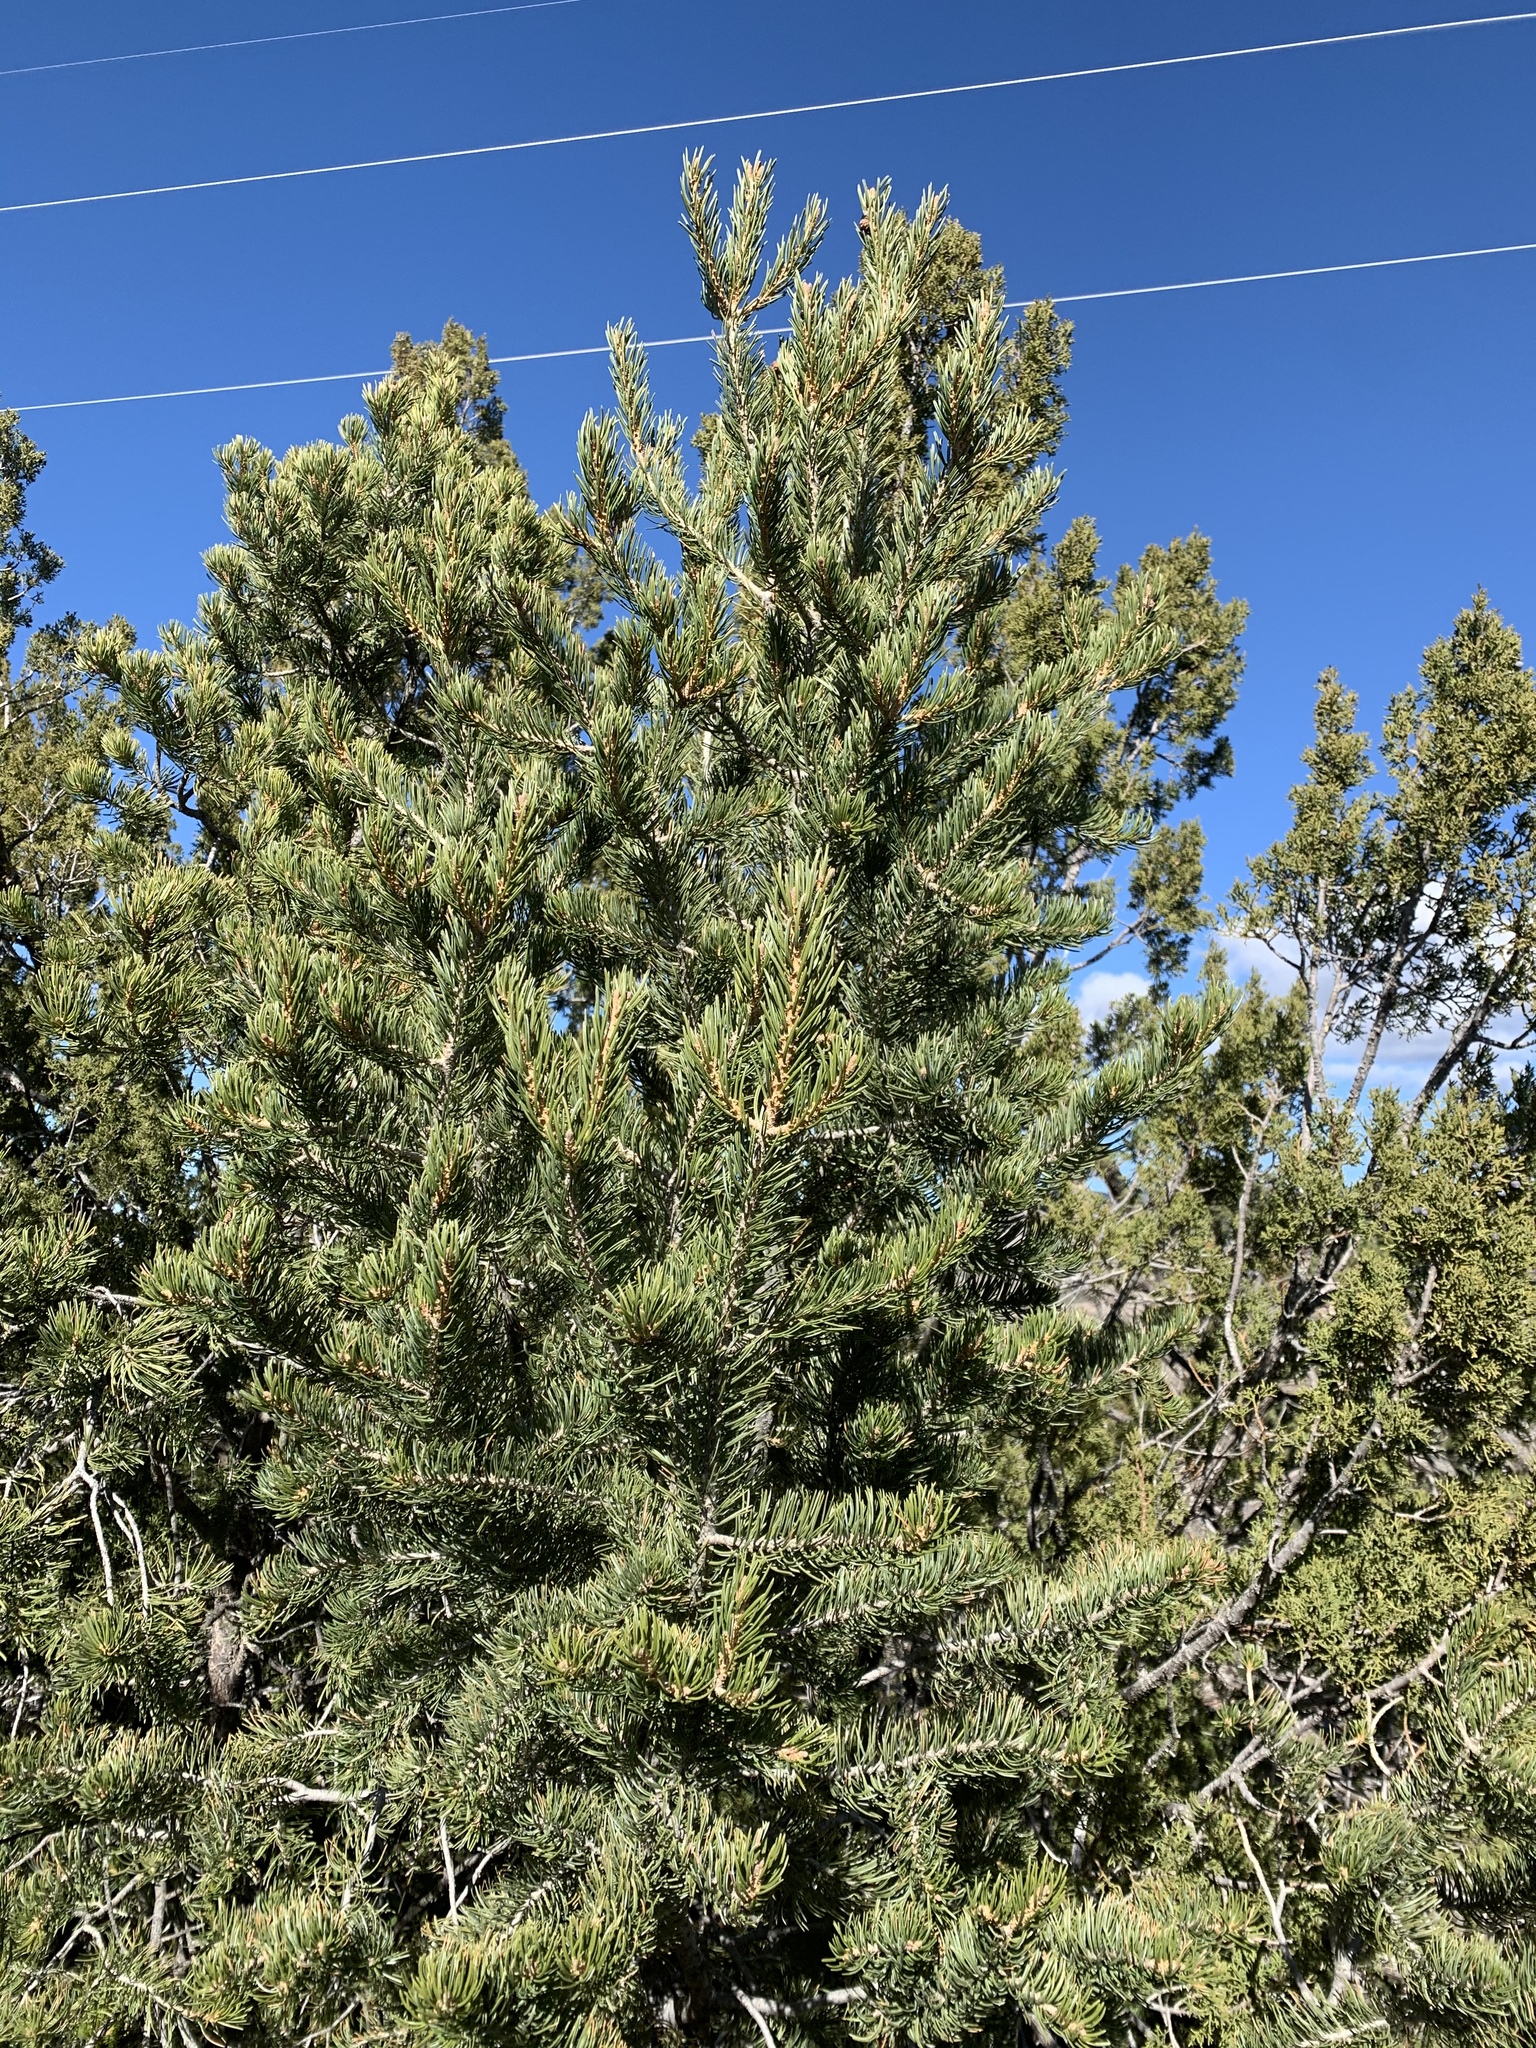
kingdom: Plantae
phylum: Tracheophyta
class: Pinopsida
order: Pinales
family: Pinaceae
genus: Pinus
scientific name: Pinus edulis
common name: Colorado pinyon
